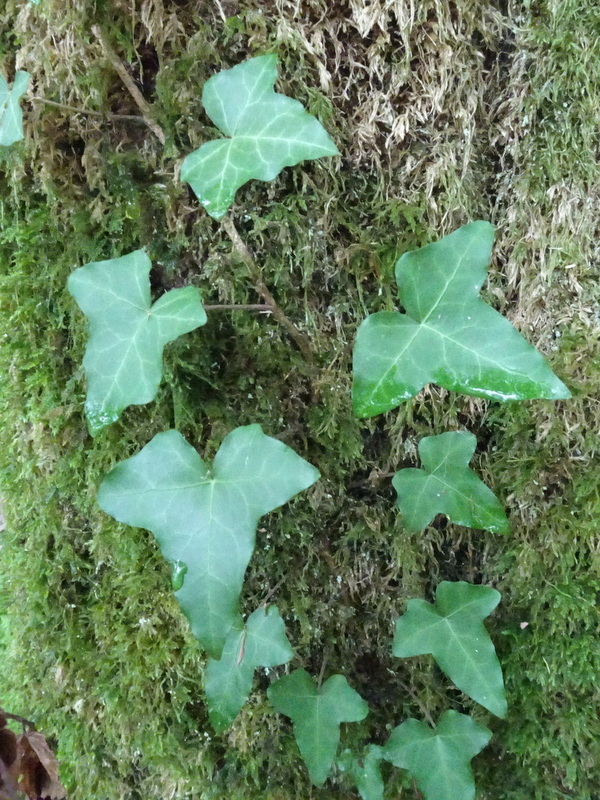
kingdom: Plantae
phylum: Tracheophyta
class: Magnoliopsida
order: Apiales
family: Araliaceae
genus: Hedera
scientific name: Hedera helix
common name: Ivy
